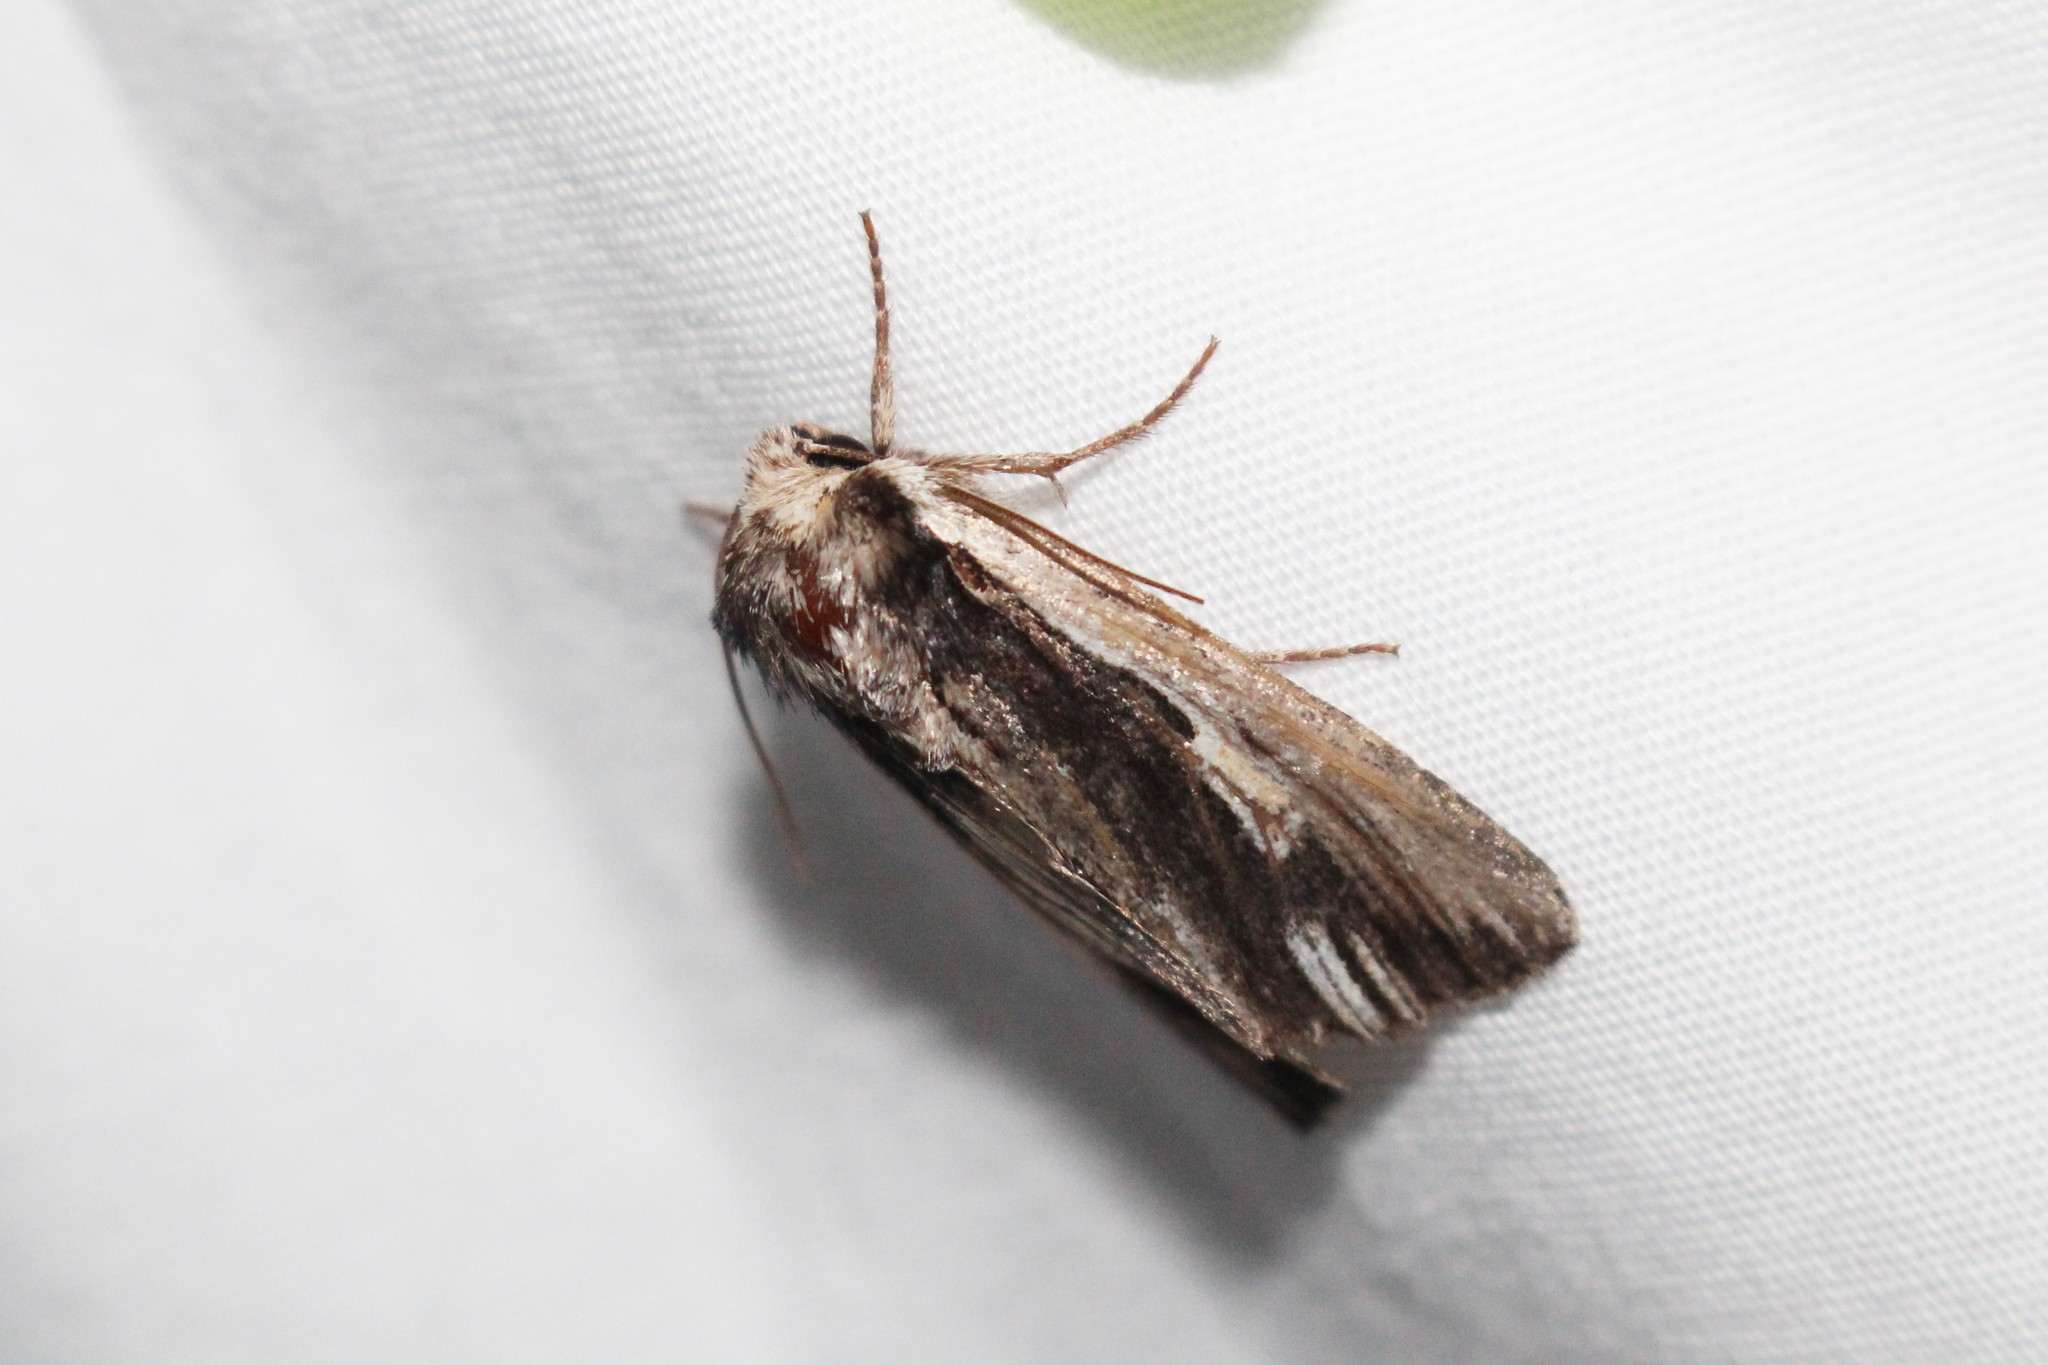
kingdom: Animalia
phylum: Arthropoda
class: Insecta
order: Lepidoptera
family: Noctuidae
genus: Achatia
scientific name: Achatia evicta
